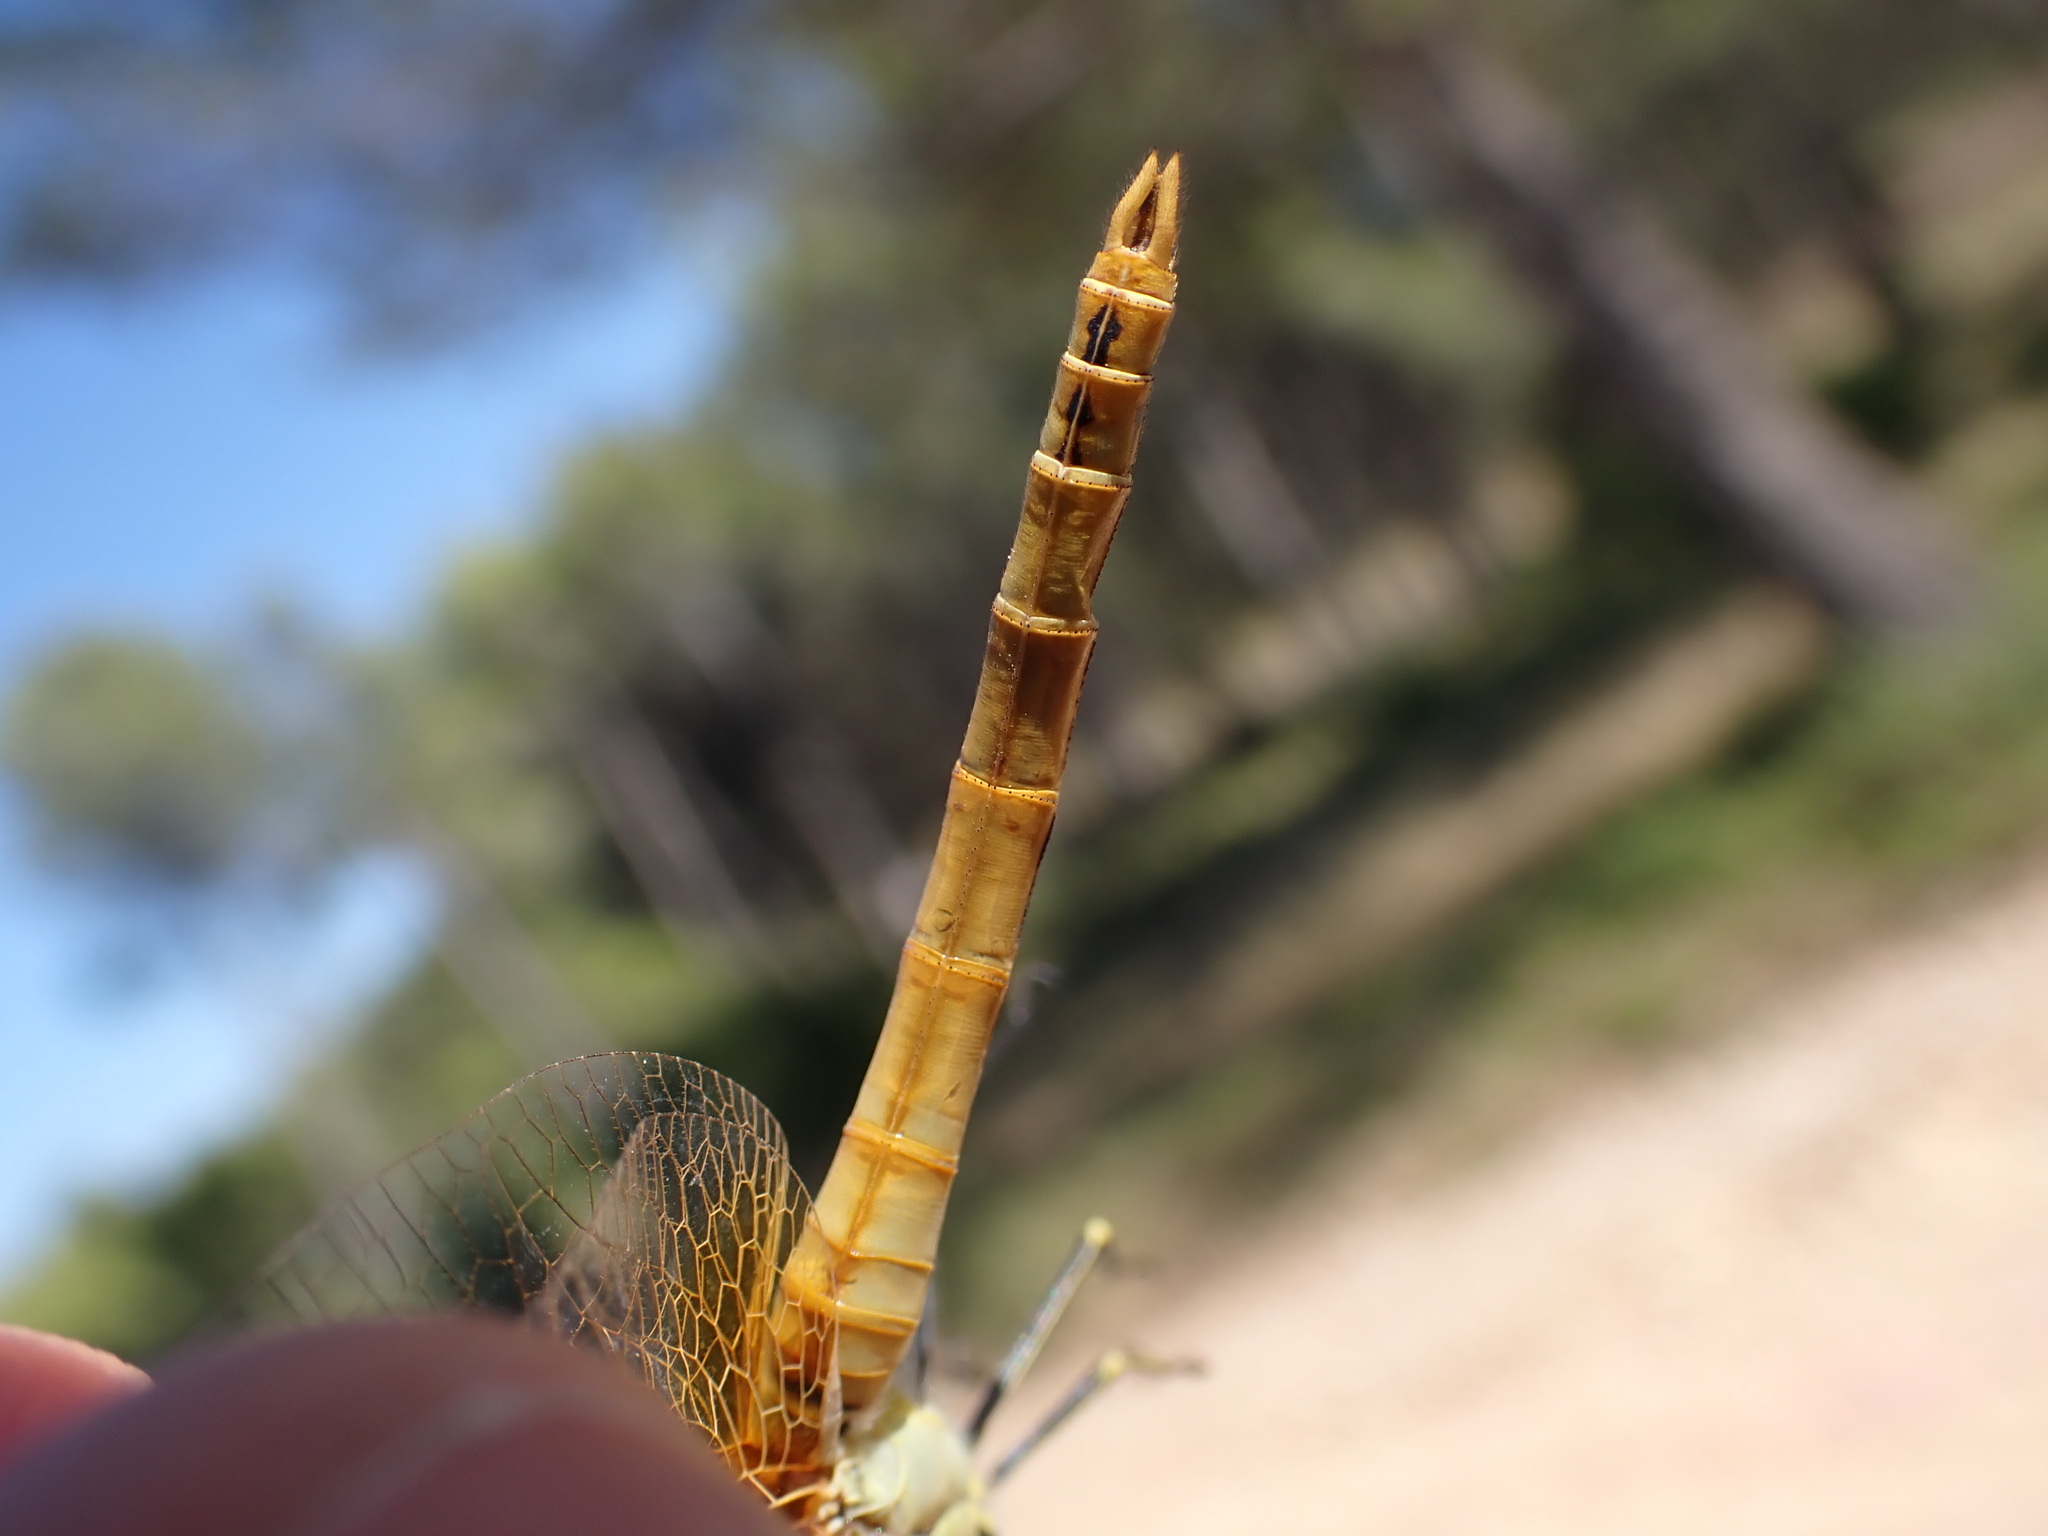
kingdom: Animalia
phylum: Arthropoda
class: Insecta
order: Odonata
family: Libellulidae
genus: Sympetrum
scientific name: Sympetrum fonscolombii
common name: Red-veined darter
